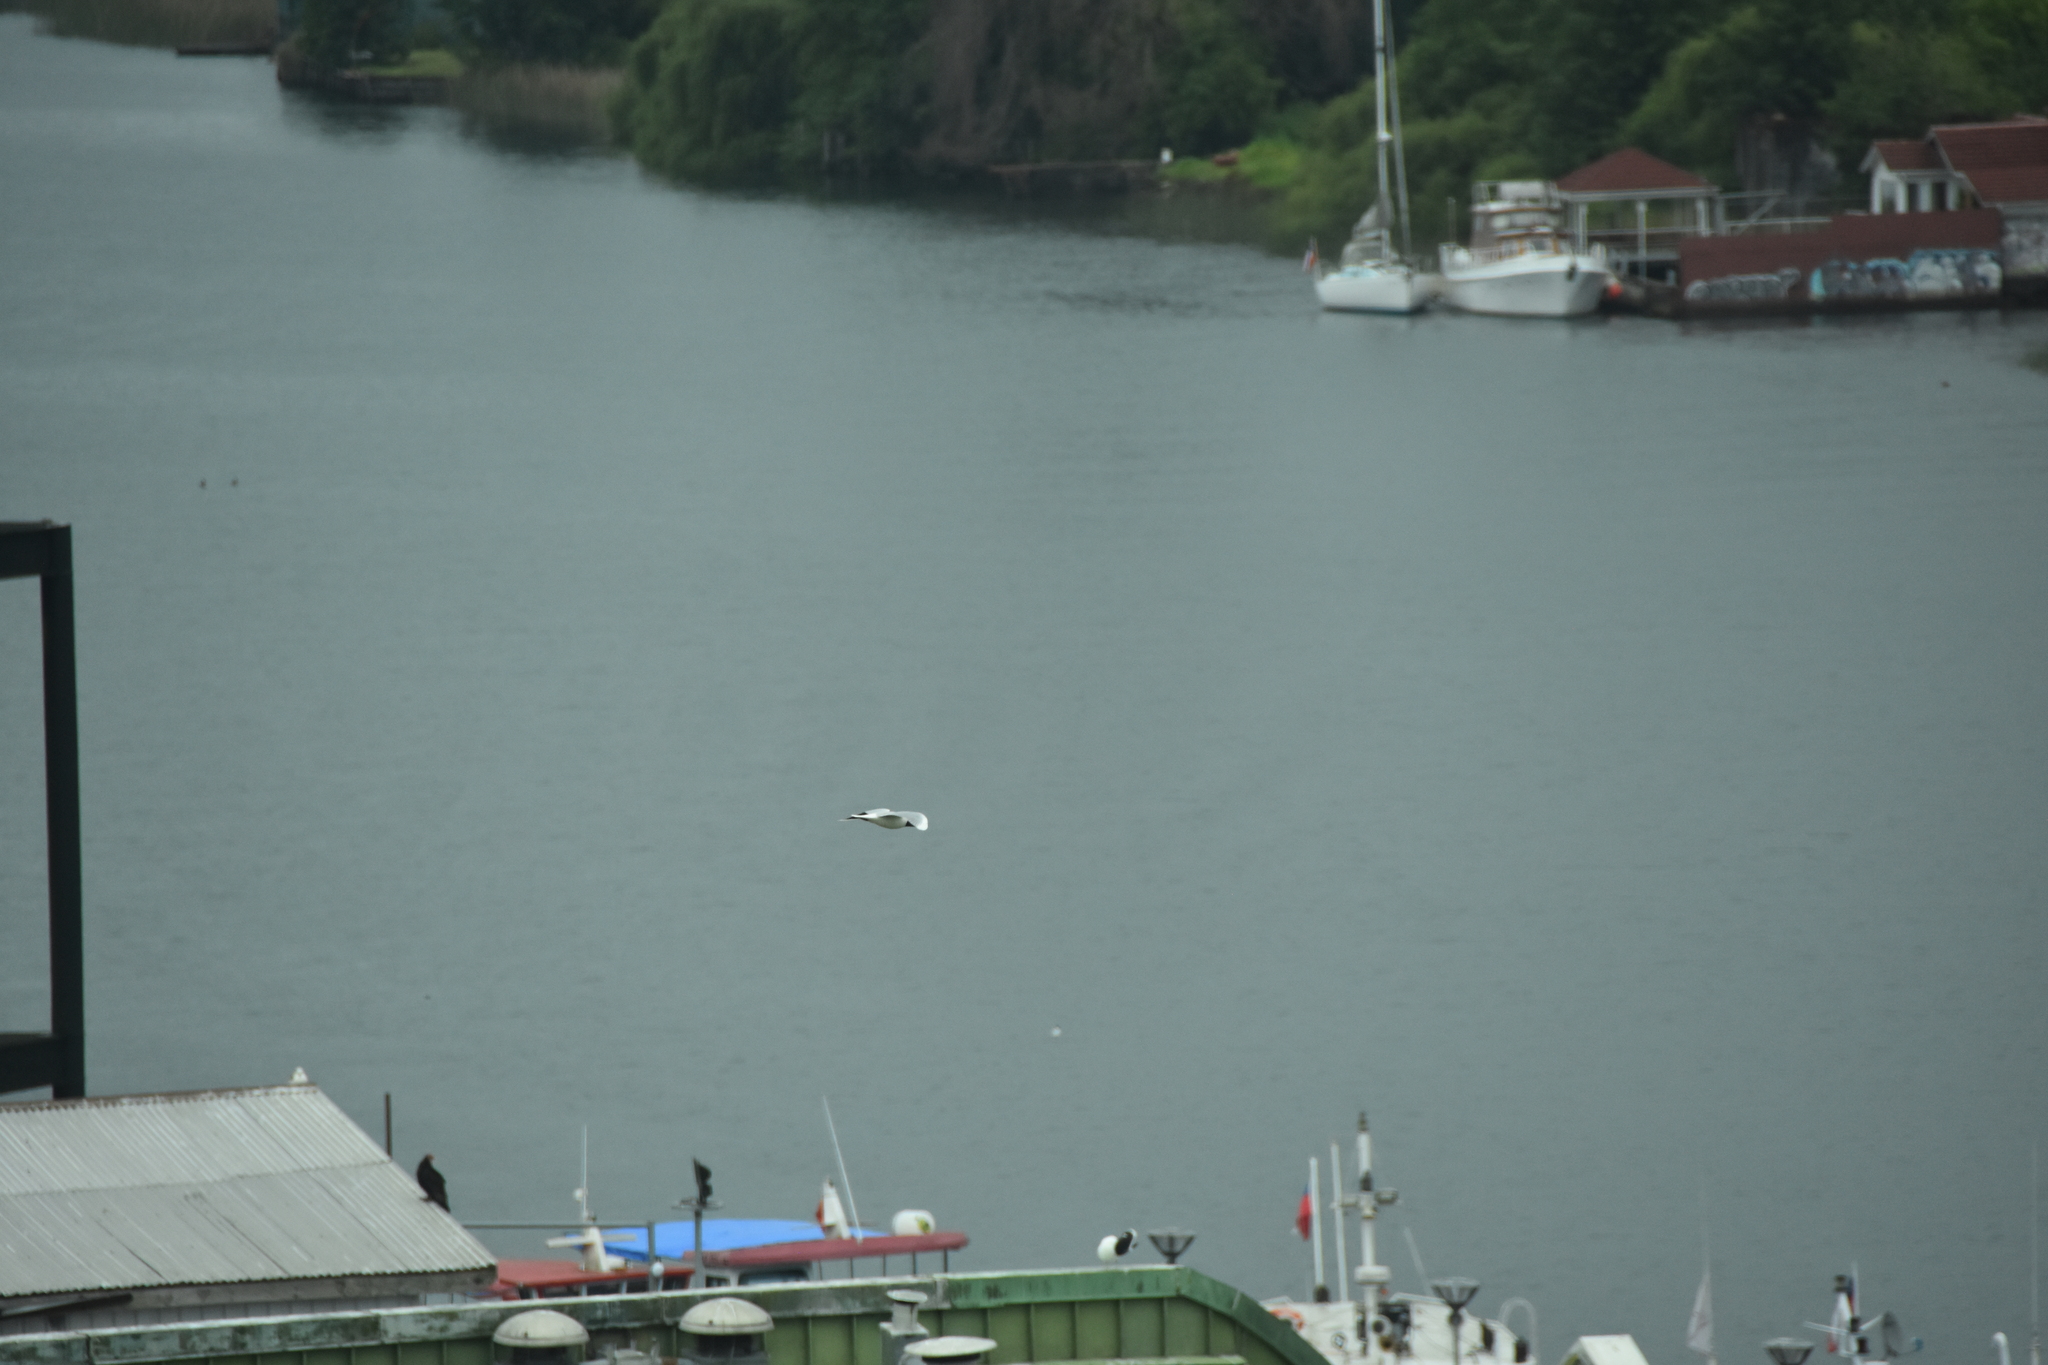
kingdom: Animalia
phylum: Chordata
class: Aves
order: Charadriiformes
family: Laridae
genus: Chroicocephalus
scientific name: Chroicocephalus maculipennis
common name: Brown-hooded gull
